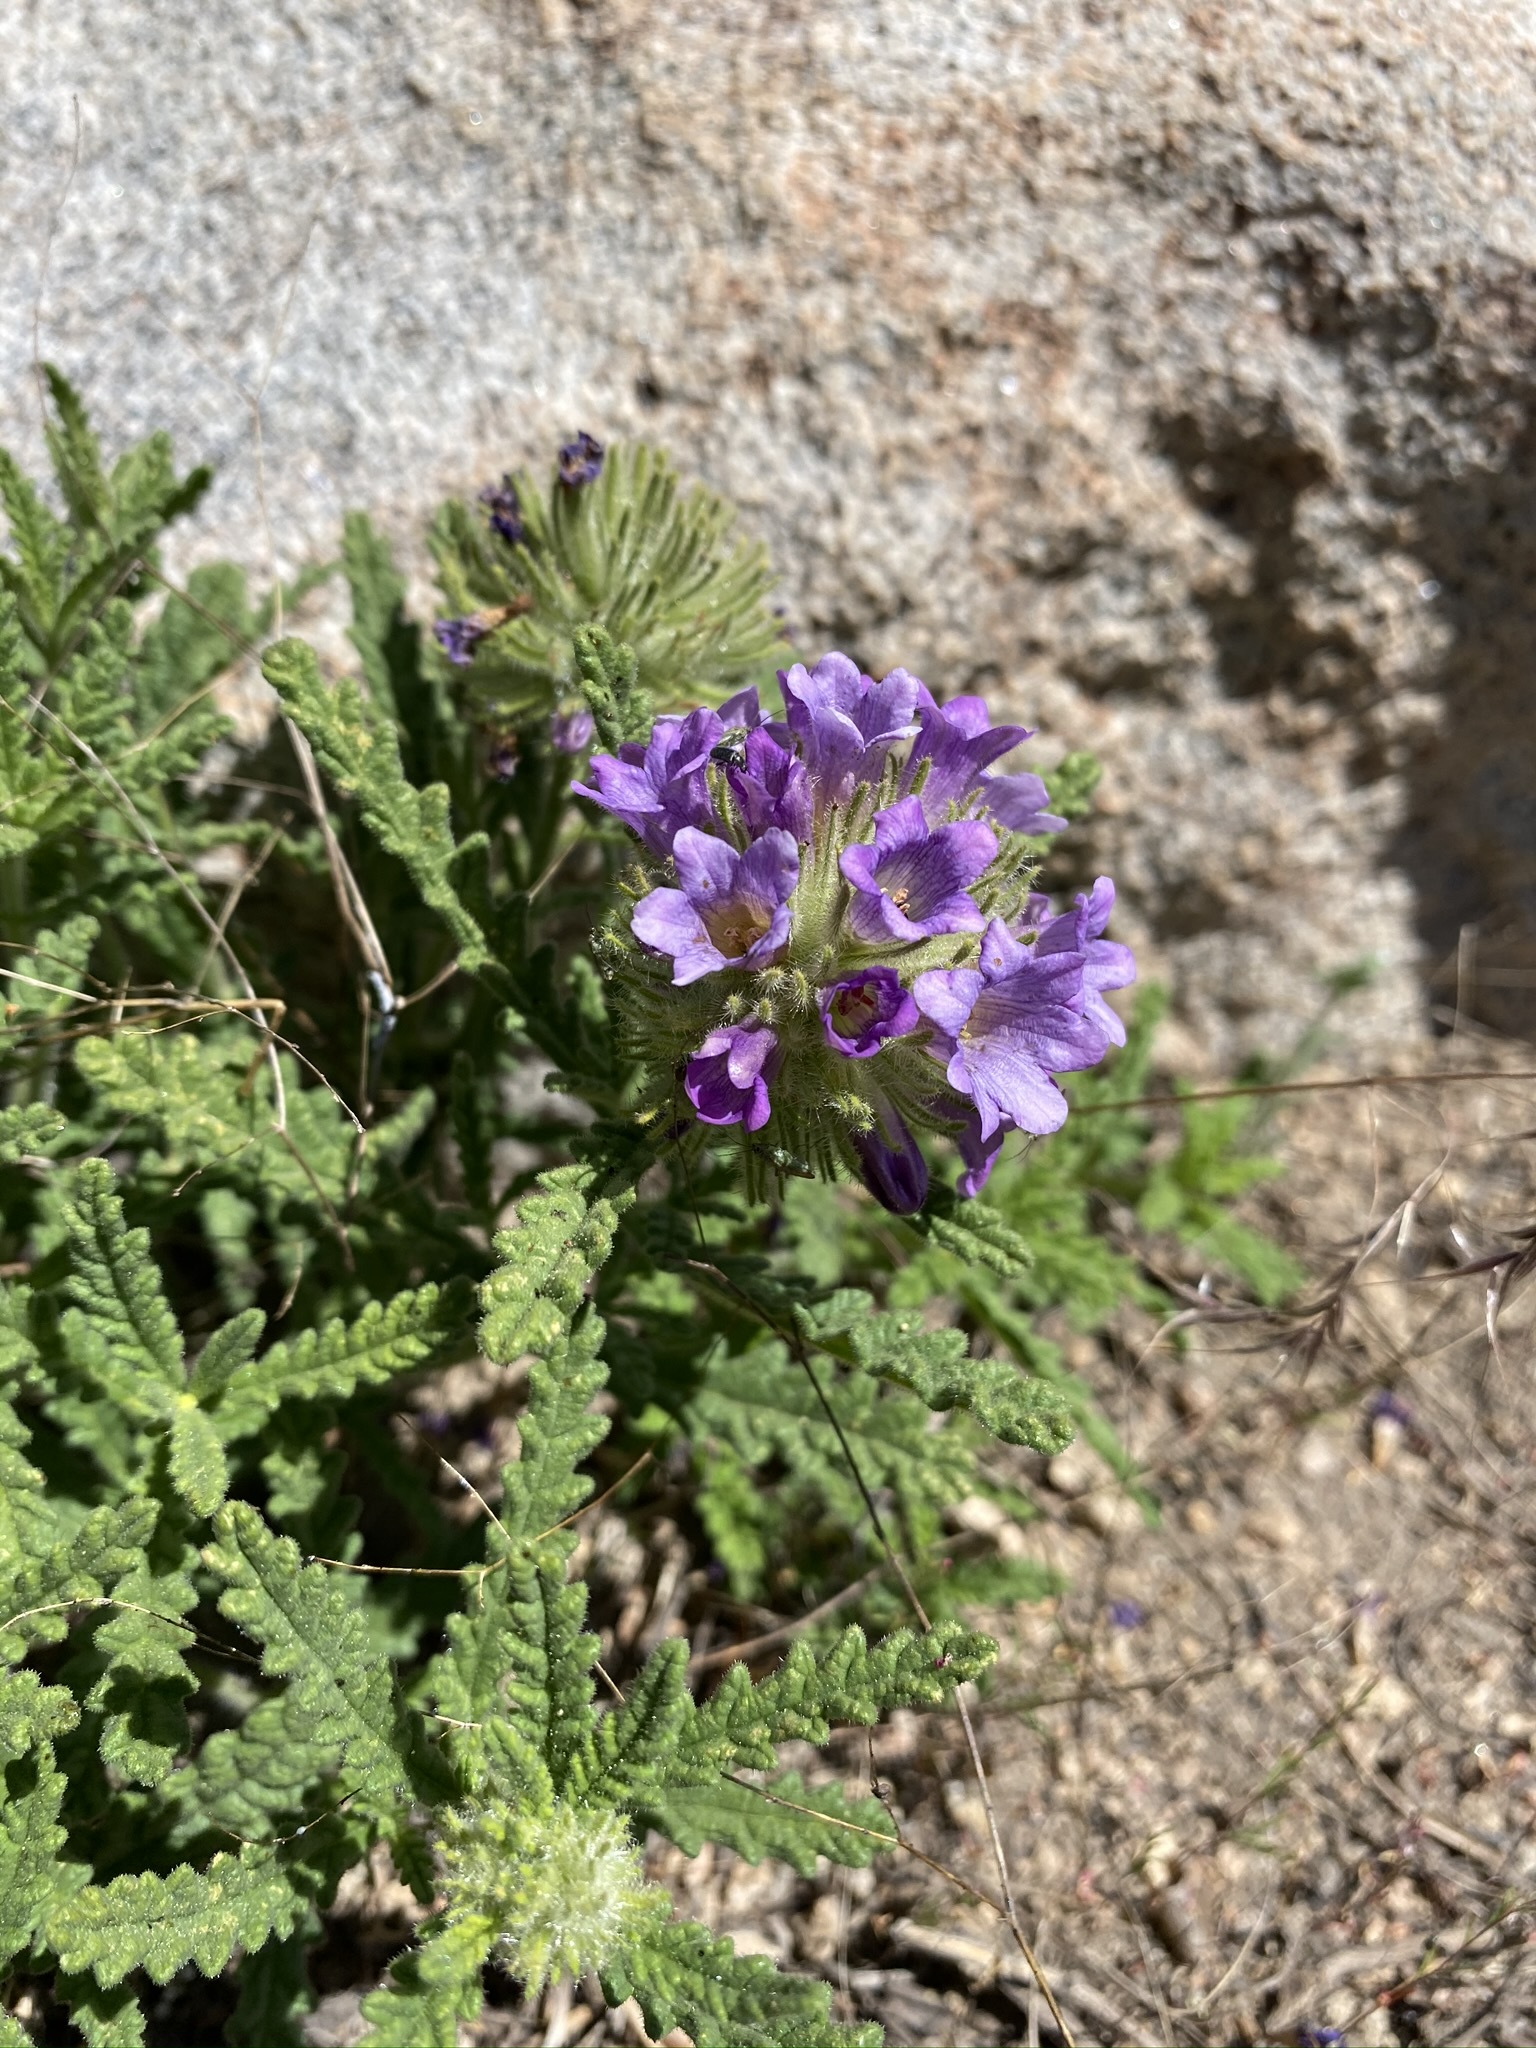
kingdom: Plantae
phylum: Tracheophyta
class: Magnoliopsida
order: Boraginales
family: Namaceae
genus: Nama
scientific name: Nama rothrockii
